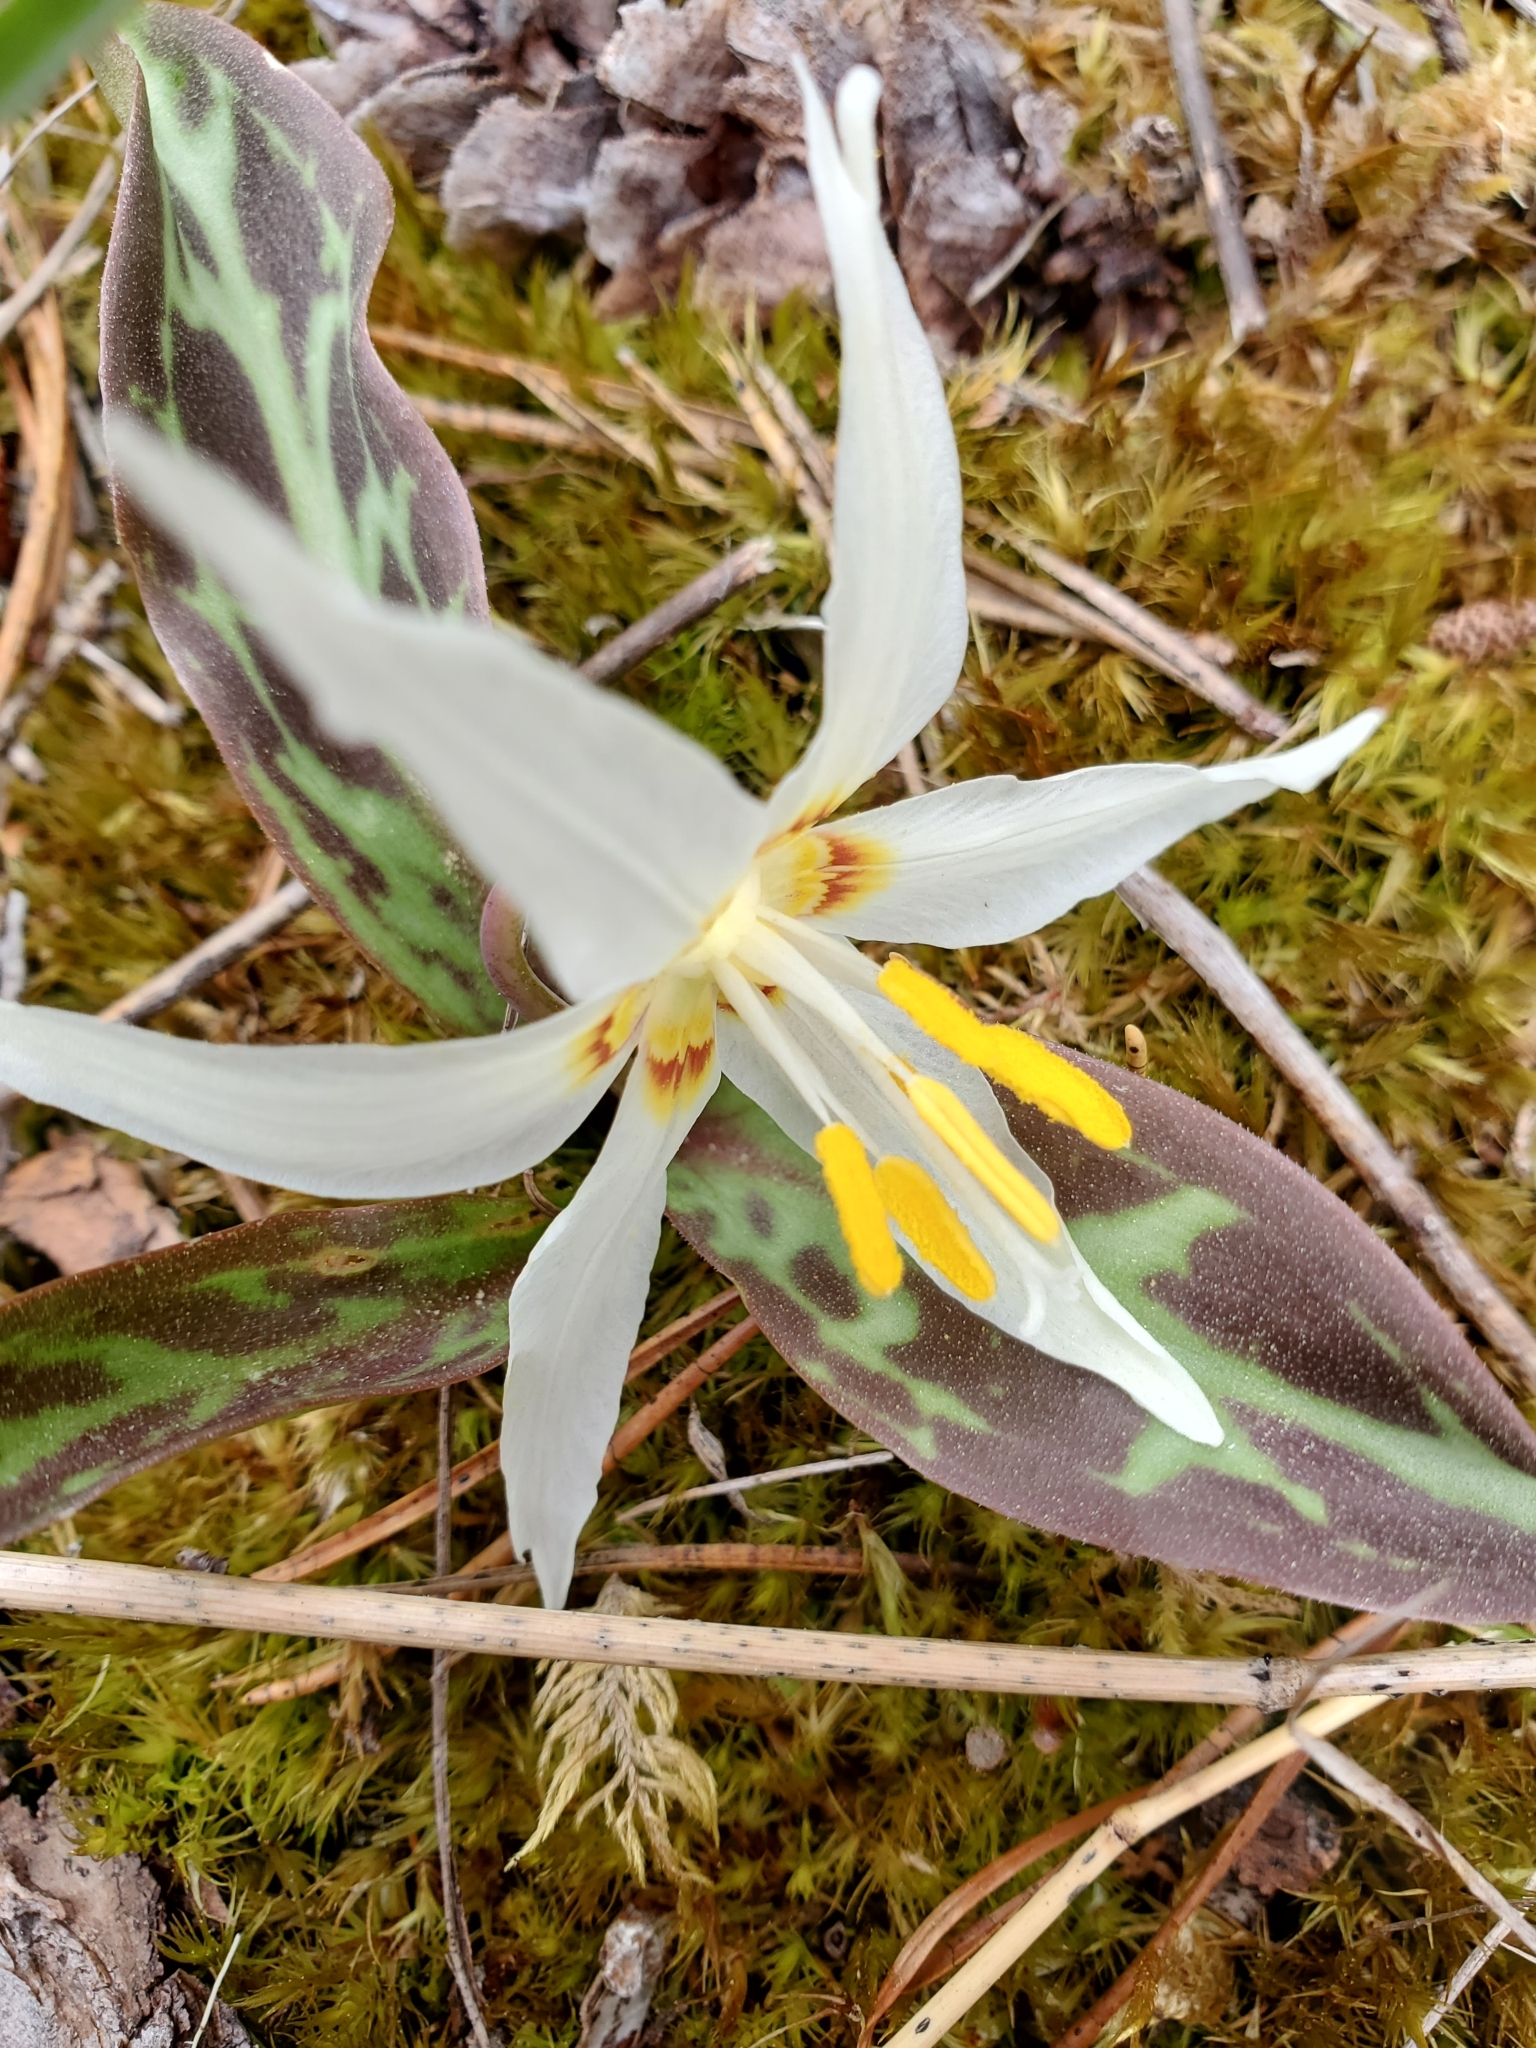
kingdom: Plantae
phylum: Tracheophyta
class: Liliopsida
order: Liliales
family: Liliaceae
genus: Erythronium
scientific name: Erythronium oregonum
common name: Giant adder's-tongue
